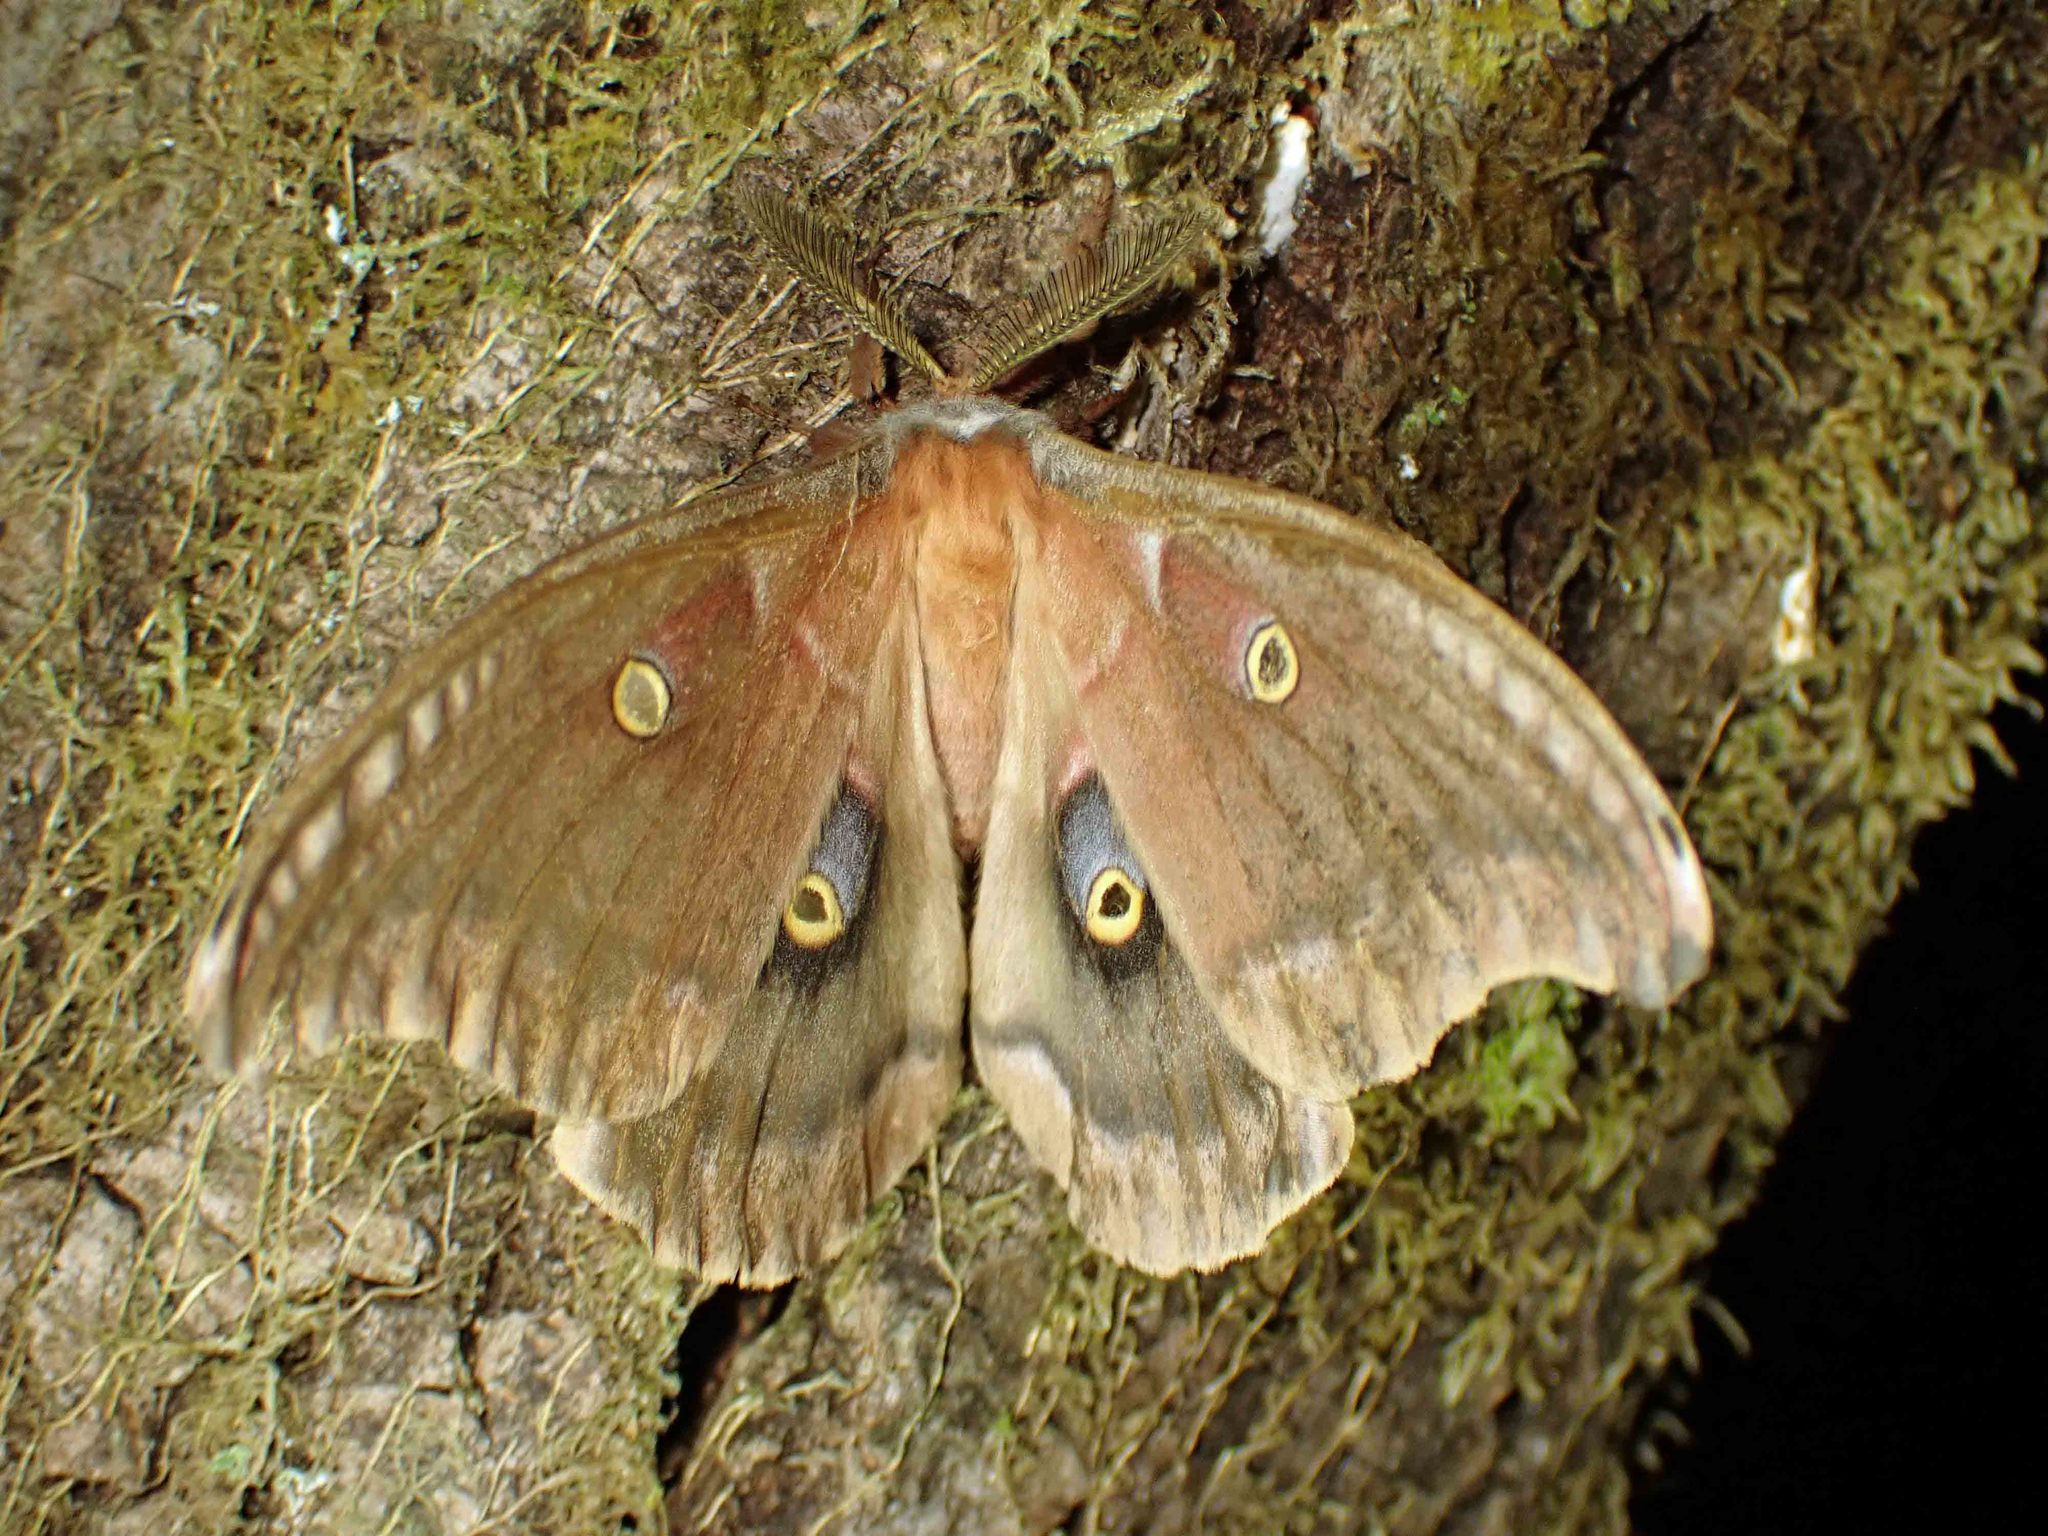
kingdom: Animalia
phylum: Arthropoda
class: Insecta
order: Lepidoptera
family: Saturniidae
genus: Antheraea
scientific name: Antheraea polyphemus
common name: Polyphemus moth
